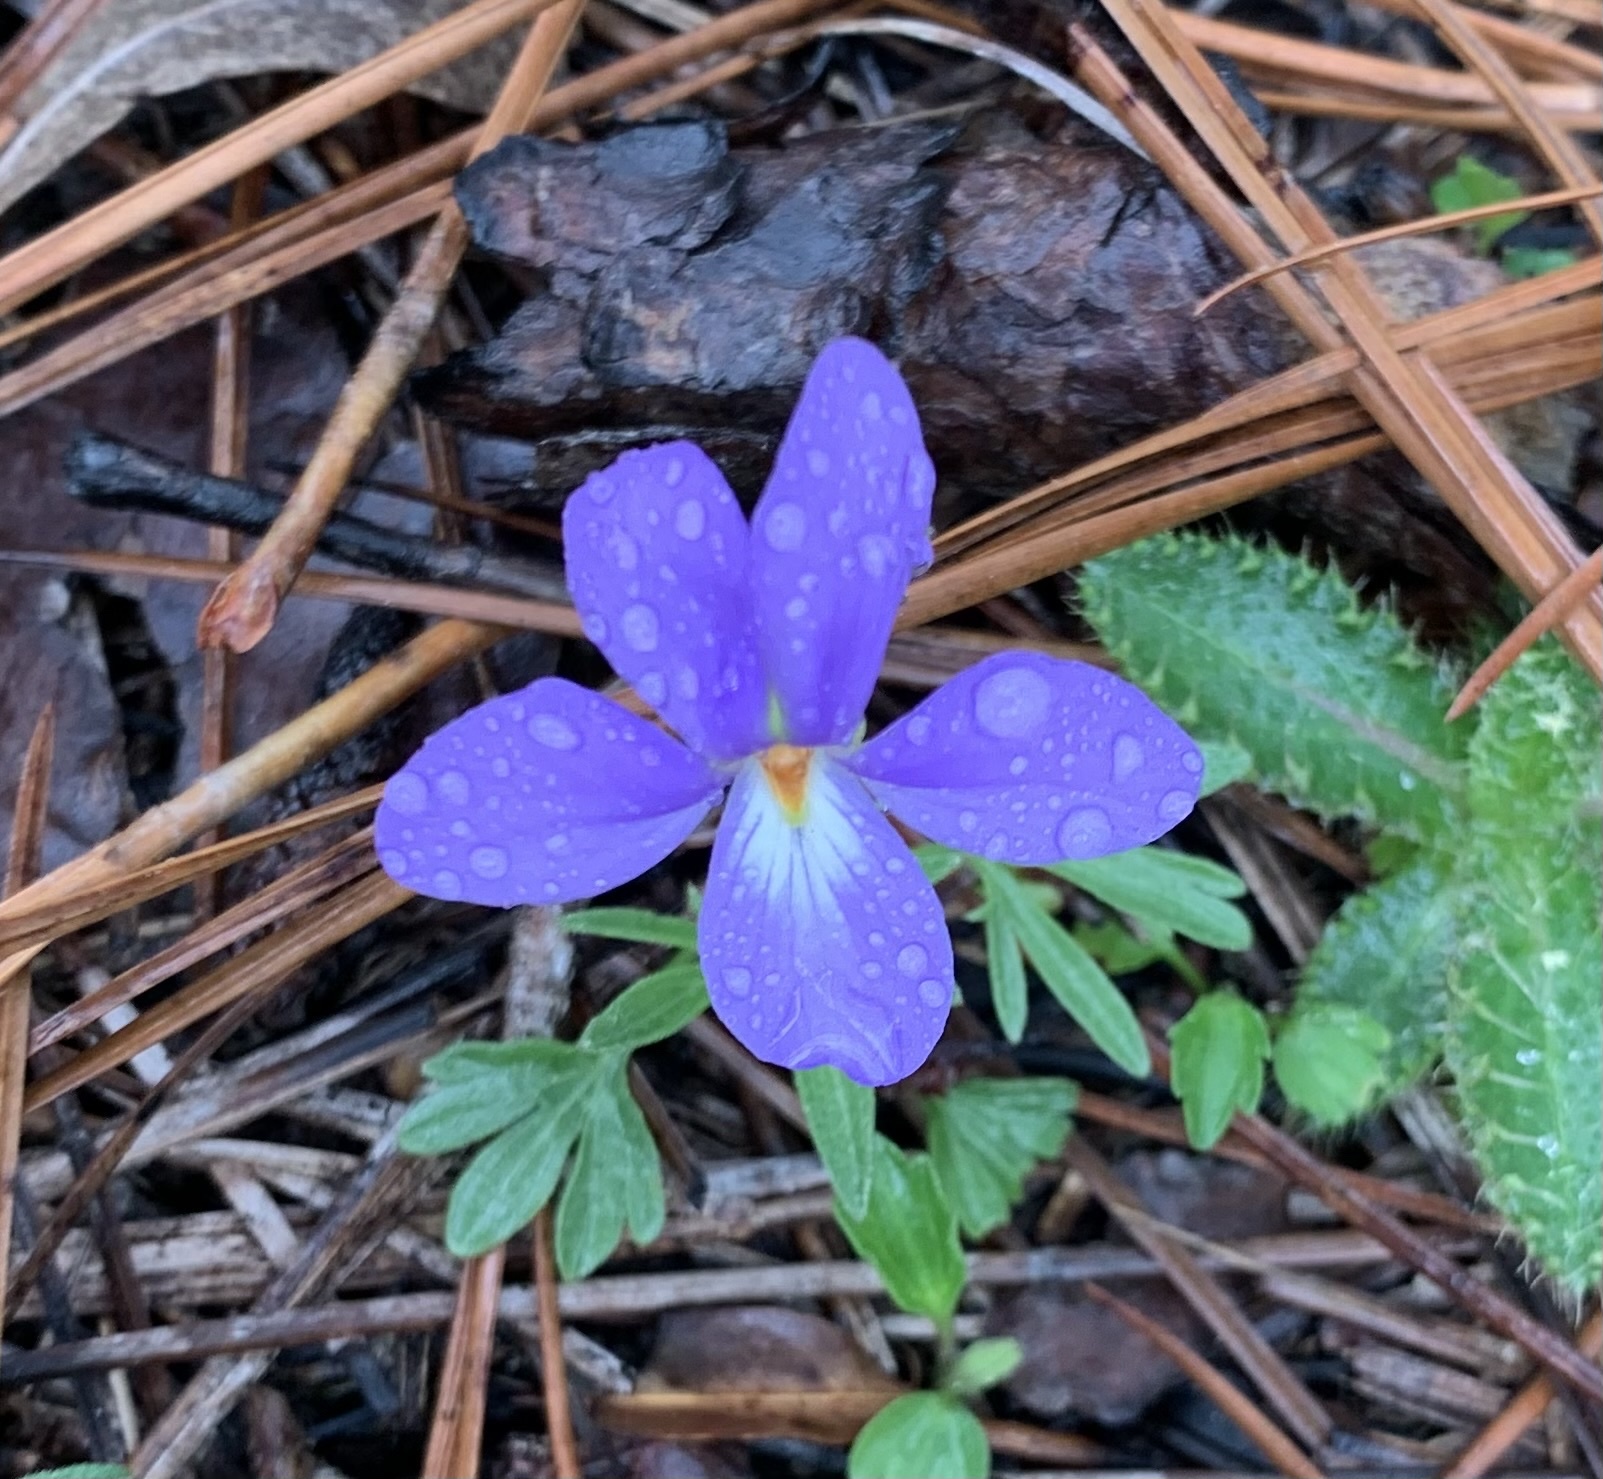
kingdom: Plantae
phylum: Tracheophyta
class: Magnoliopsida
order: Malpighiales
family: Violaceae
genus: Viola
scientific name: Viola pedata
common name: Pansy violet
